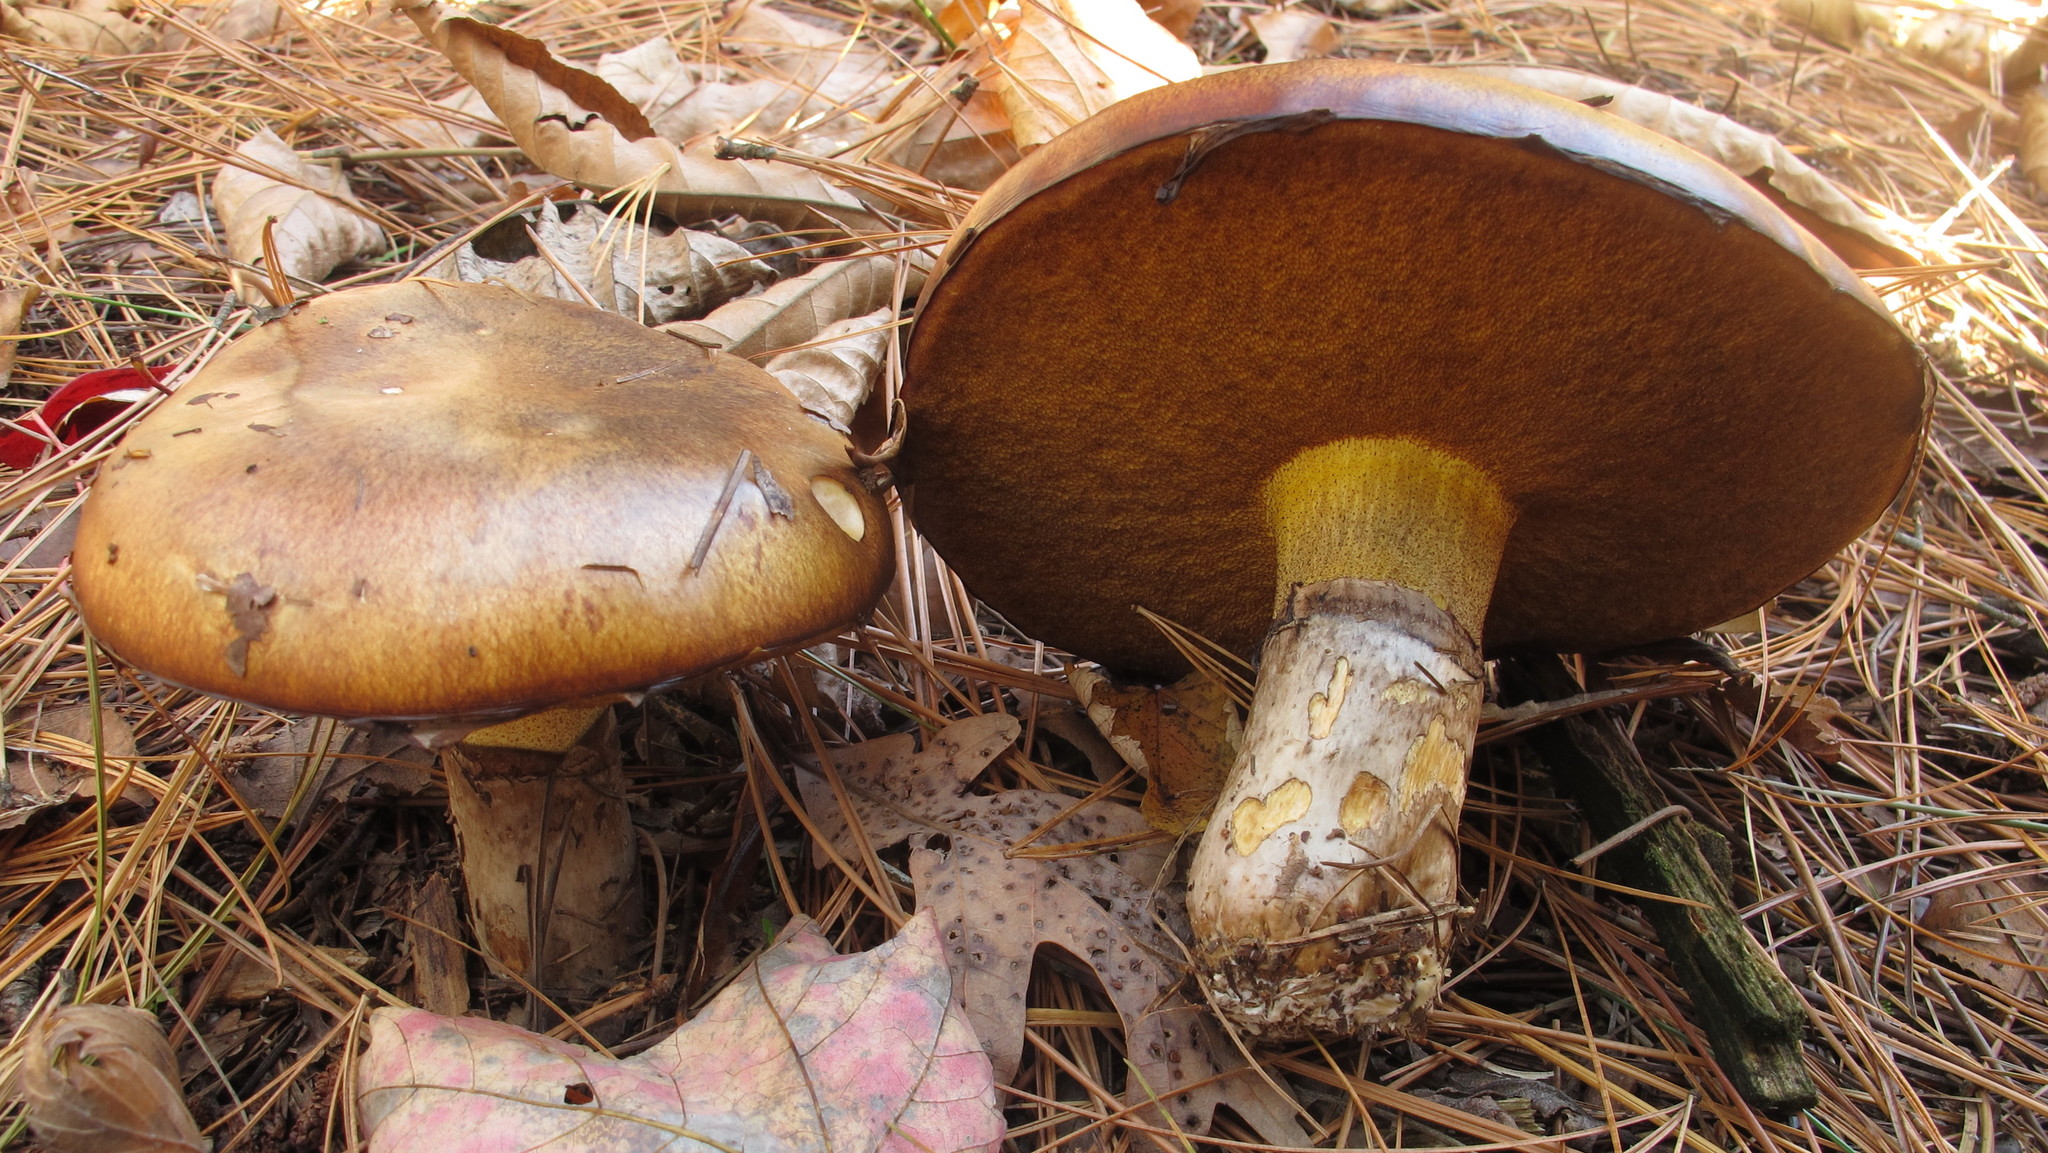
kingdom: Fungi
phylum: Basidiomycota
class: Agaricomycetes
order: Boletales
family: Suillaceae
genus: Suillus
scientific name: Suillus luteus
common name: Slippery jack
